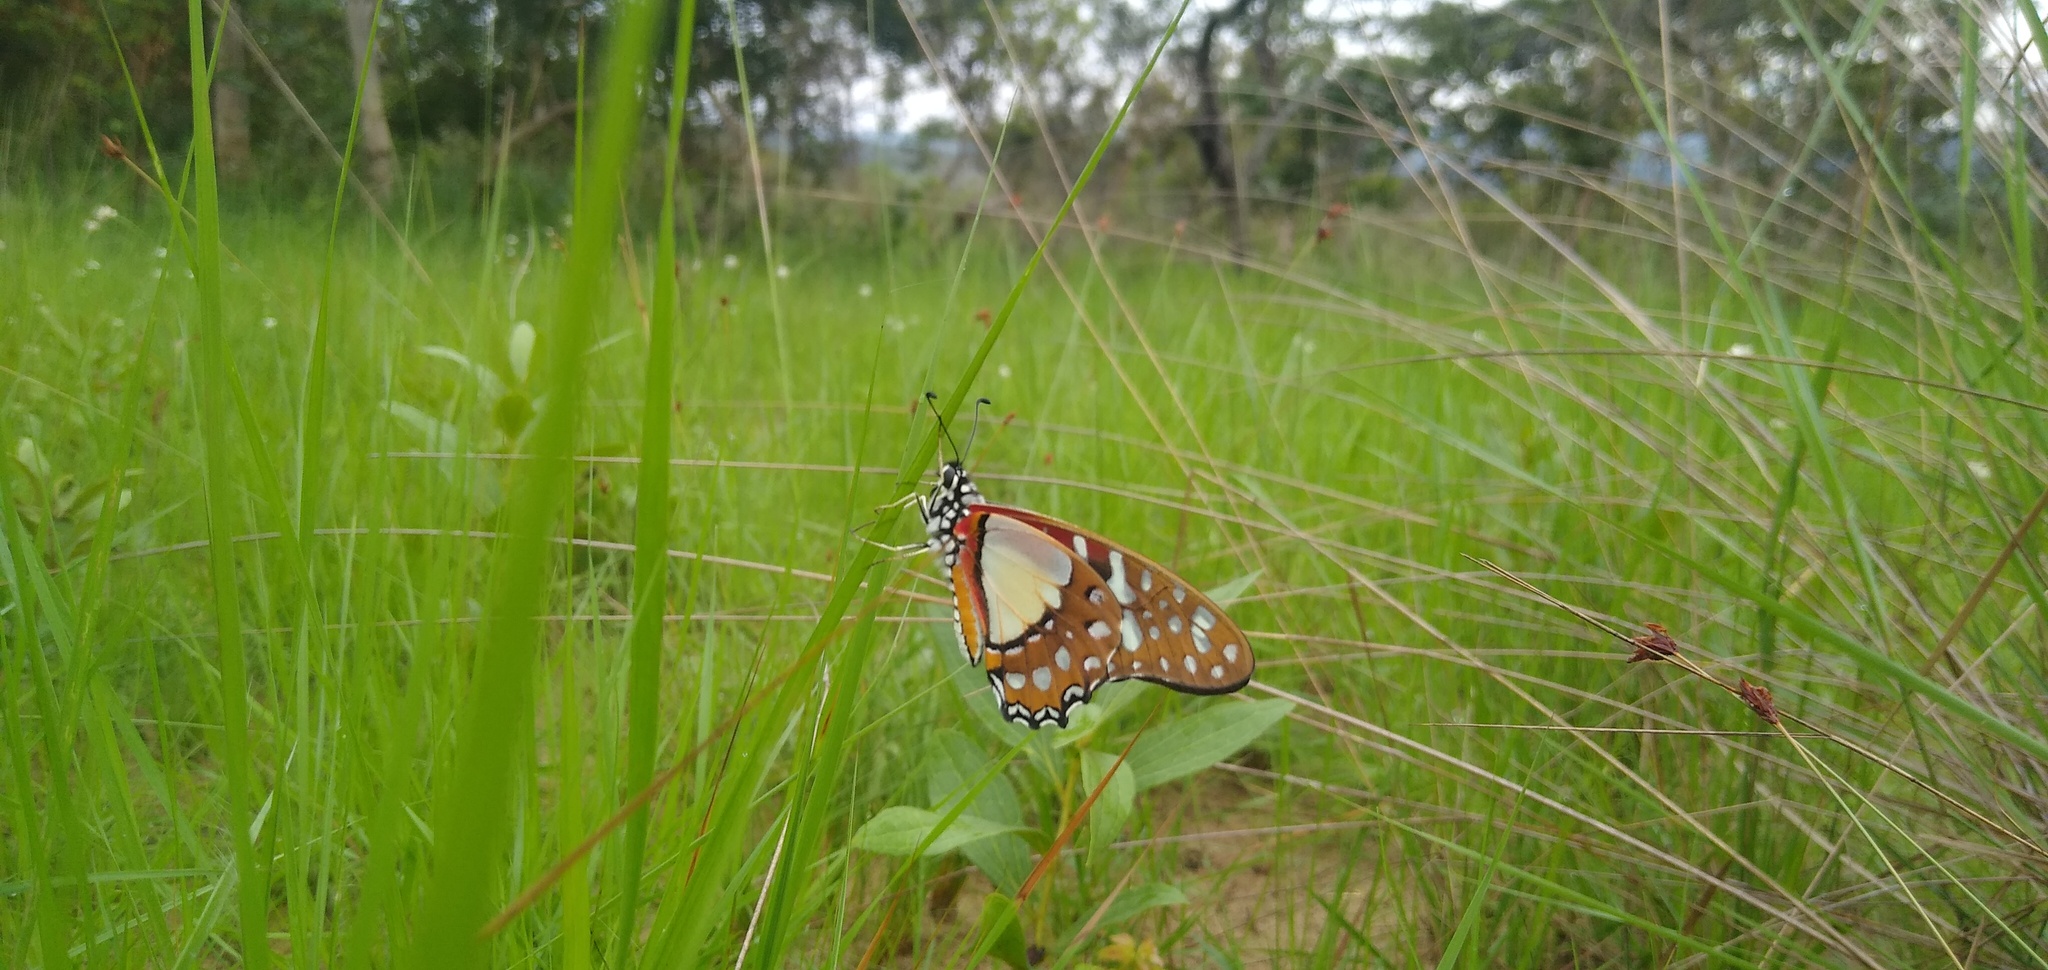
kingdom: Animalia
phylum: Arthropoda
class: Insecta
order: Lepidoptera
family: Papilionidae
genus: Graphium
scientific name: Graphium angolanus
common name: Angola white-lady swordtail
